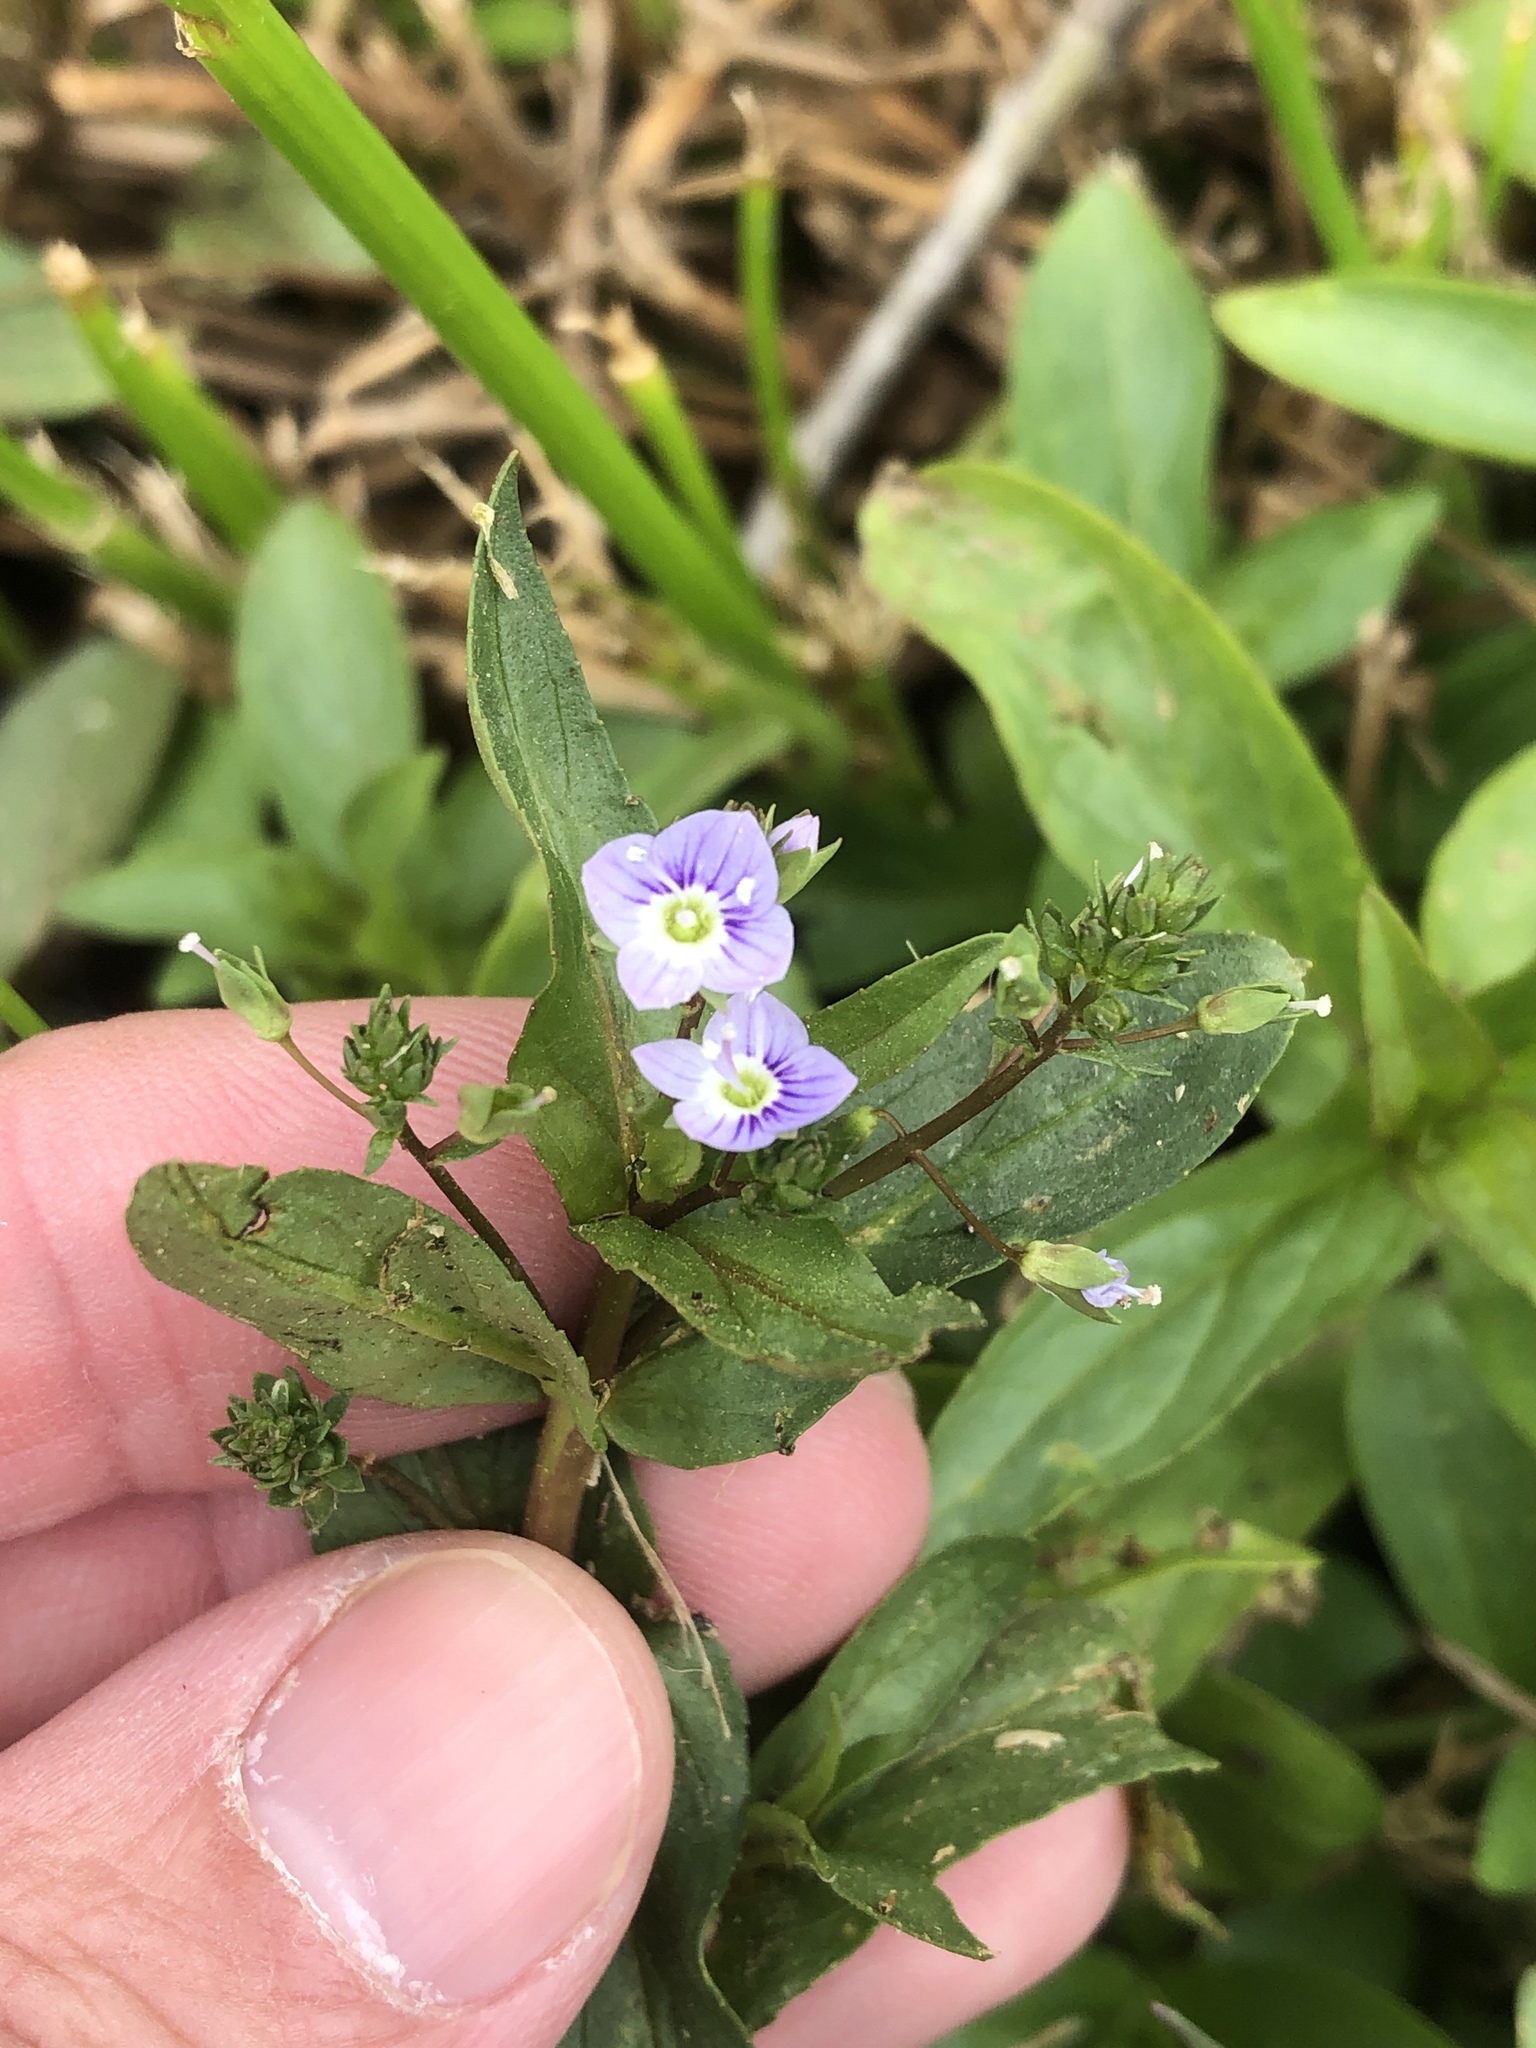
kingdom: Plantae
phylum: Tracheophyta
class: Magnoliopsida
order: Lamiales
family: Plantaginaceae
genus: Veronica
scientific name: Veronica anagallis-aquatica
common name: Water speedwell
